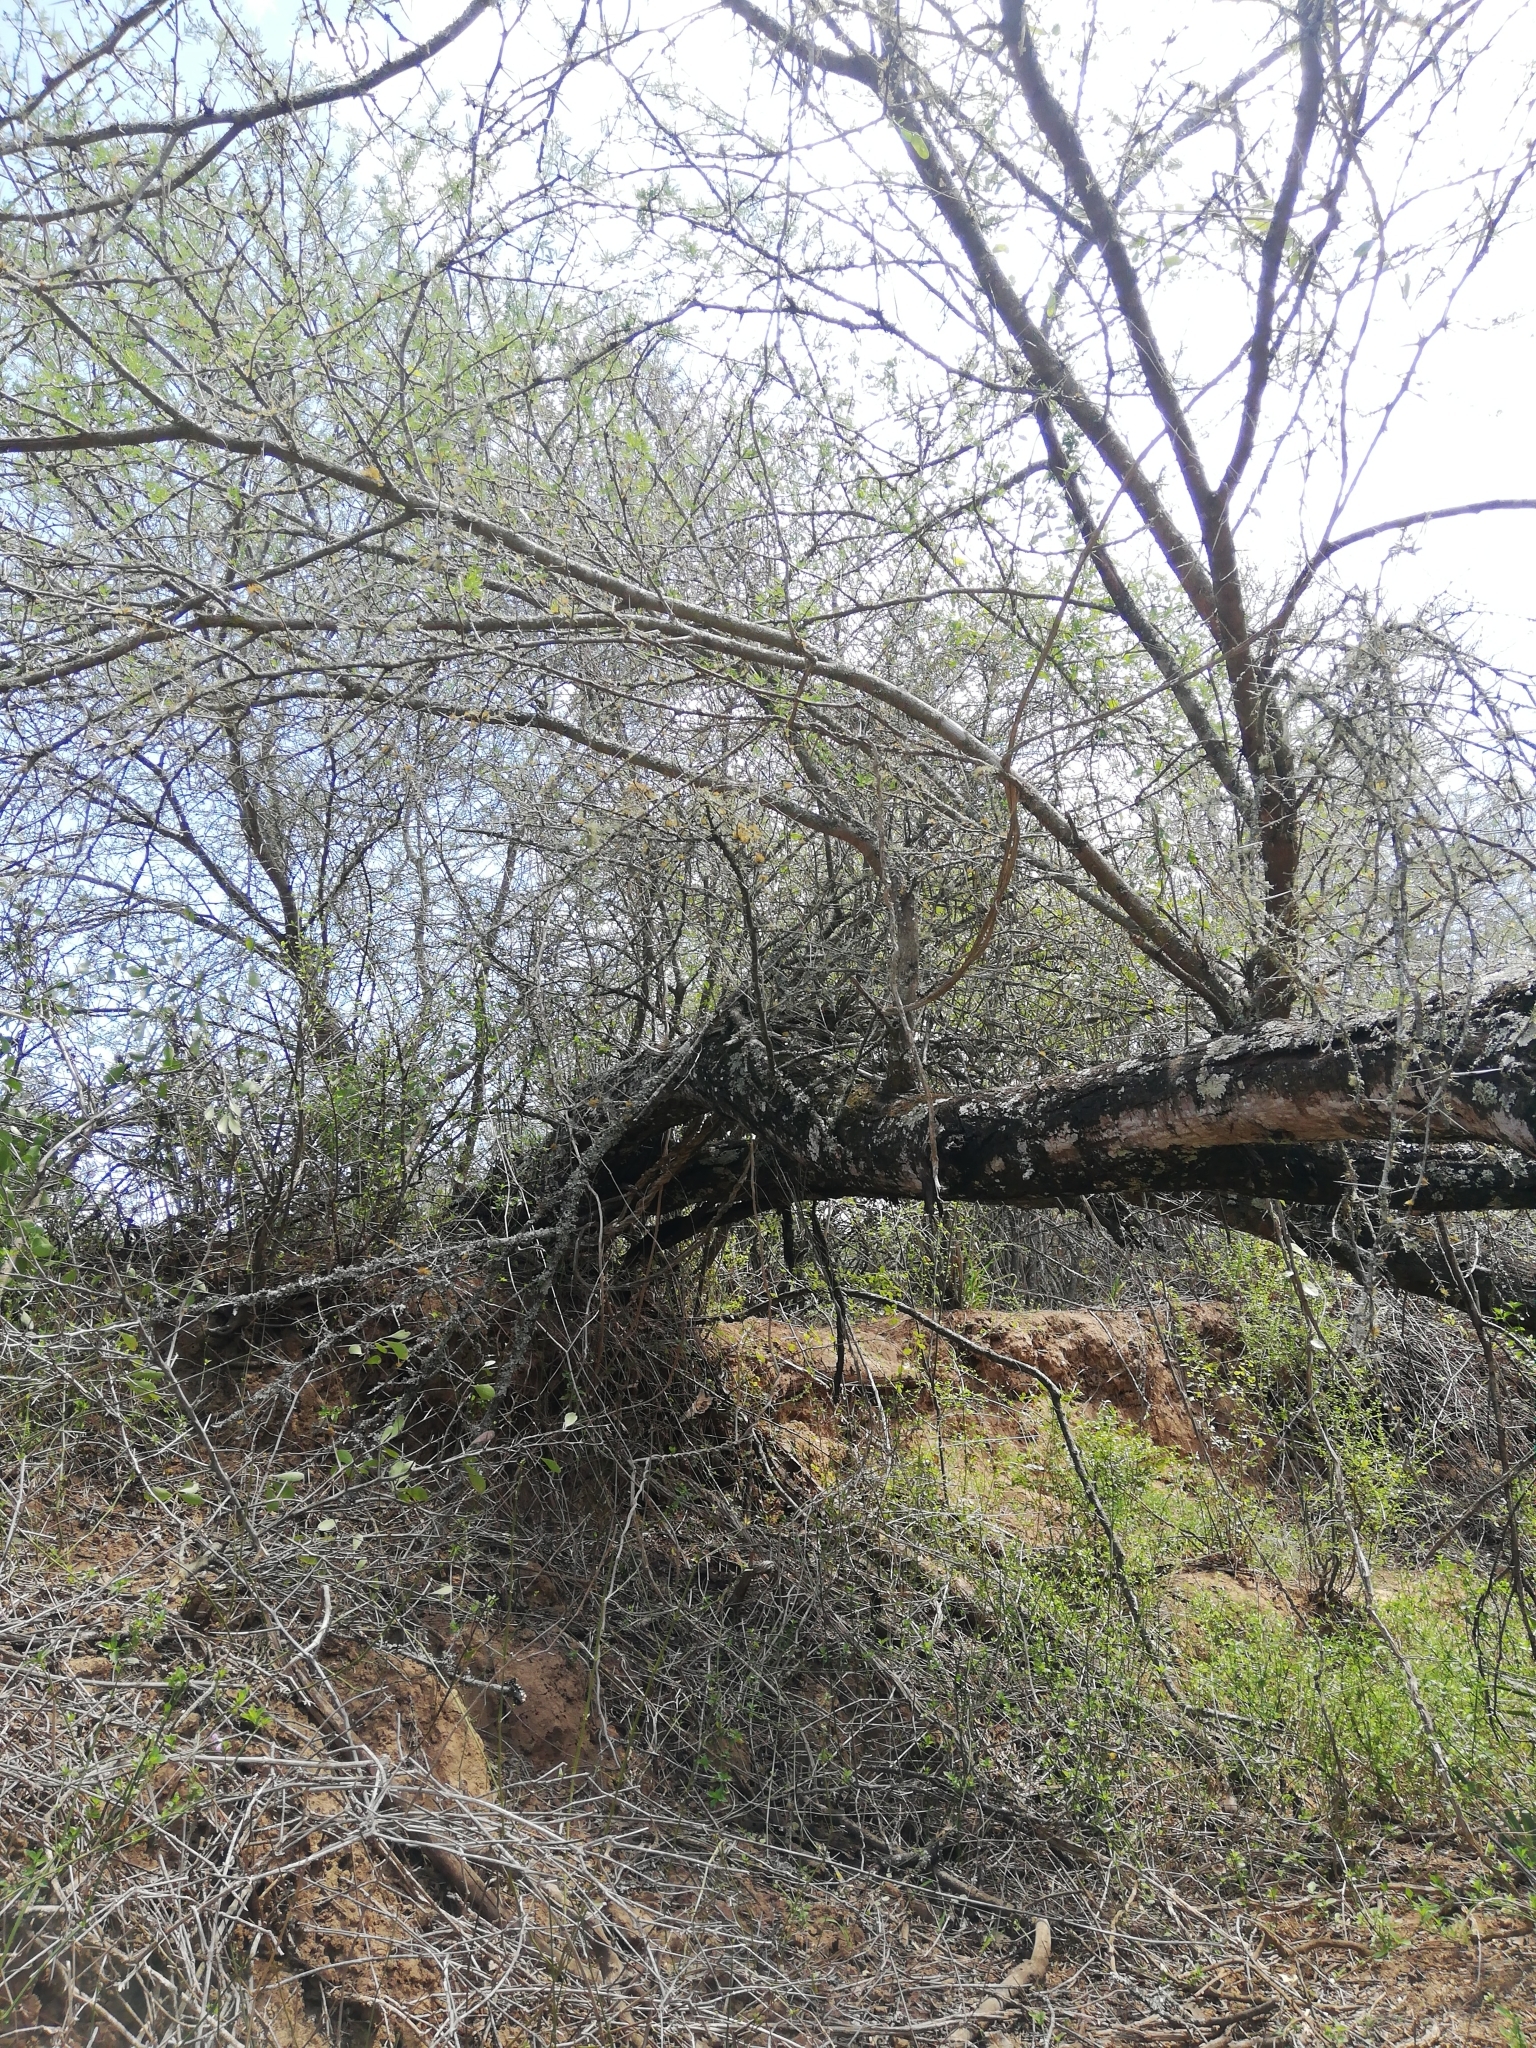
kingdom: Plantae
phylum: Tracheophyta
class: Magnoliopsida
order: Fabales
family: Fabaceae
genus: Vachellia
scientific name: Vachellia karroo
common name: Sweet thorn
